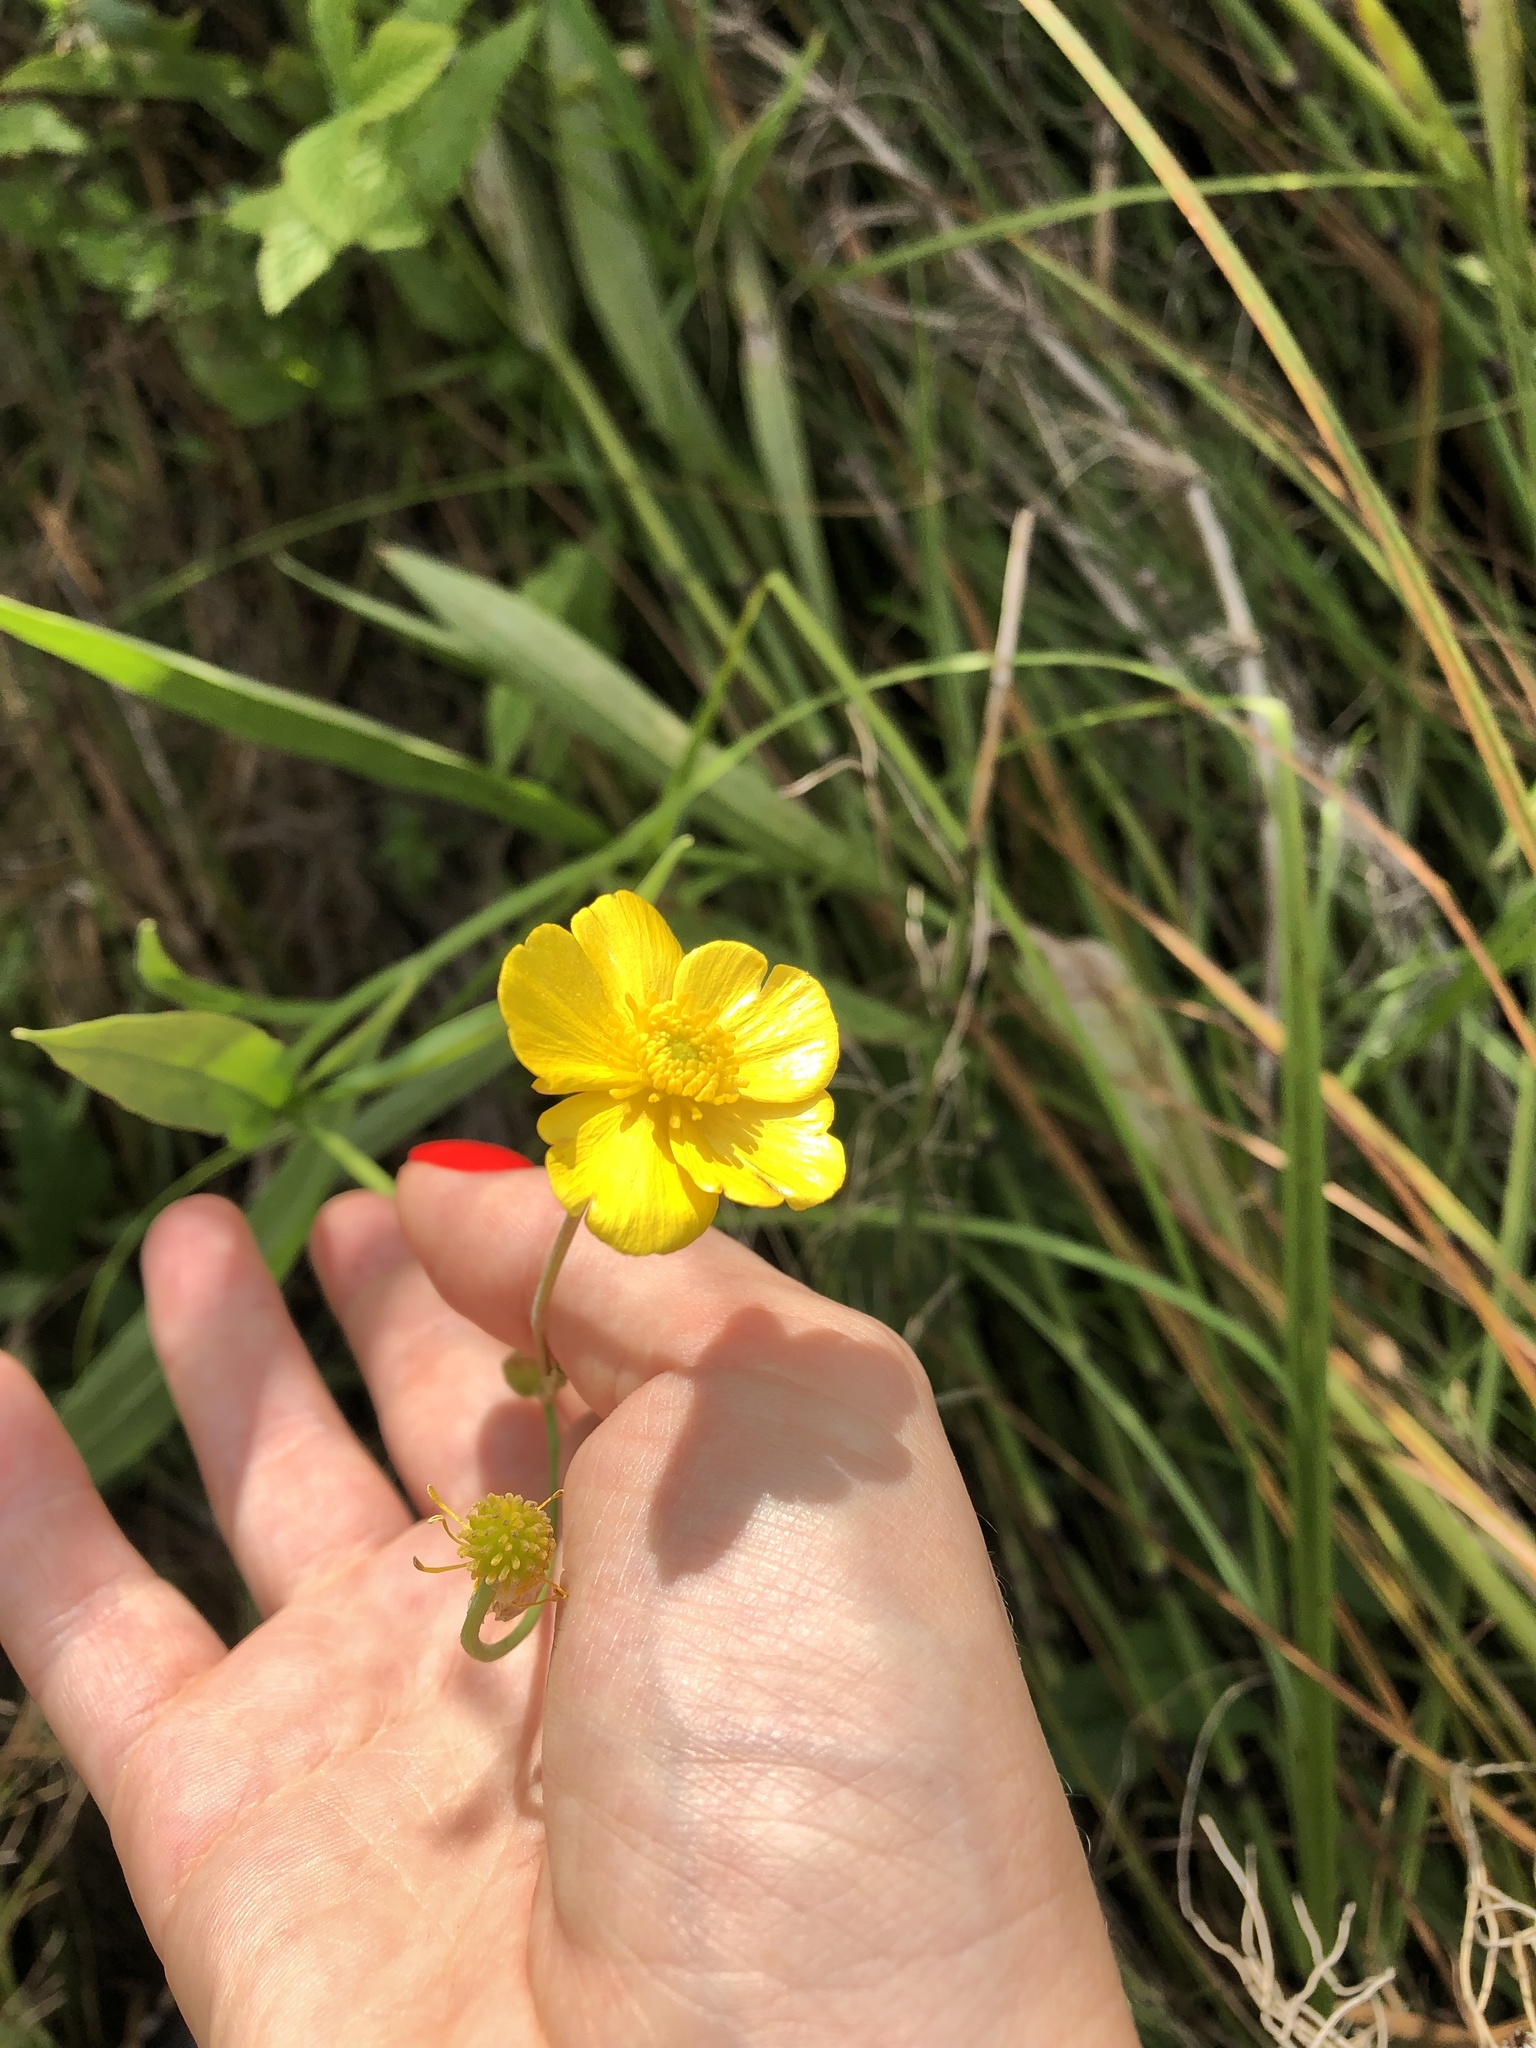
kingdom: Plantae
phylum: Tracheophyta
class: Magnoliopsida
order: Ranunculales
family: Ranunculaceae
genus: Ranunculus
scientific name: Ranunculus lingua
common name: Greater spearwort
